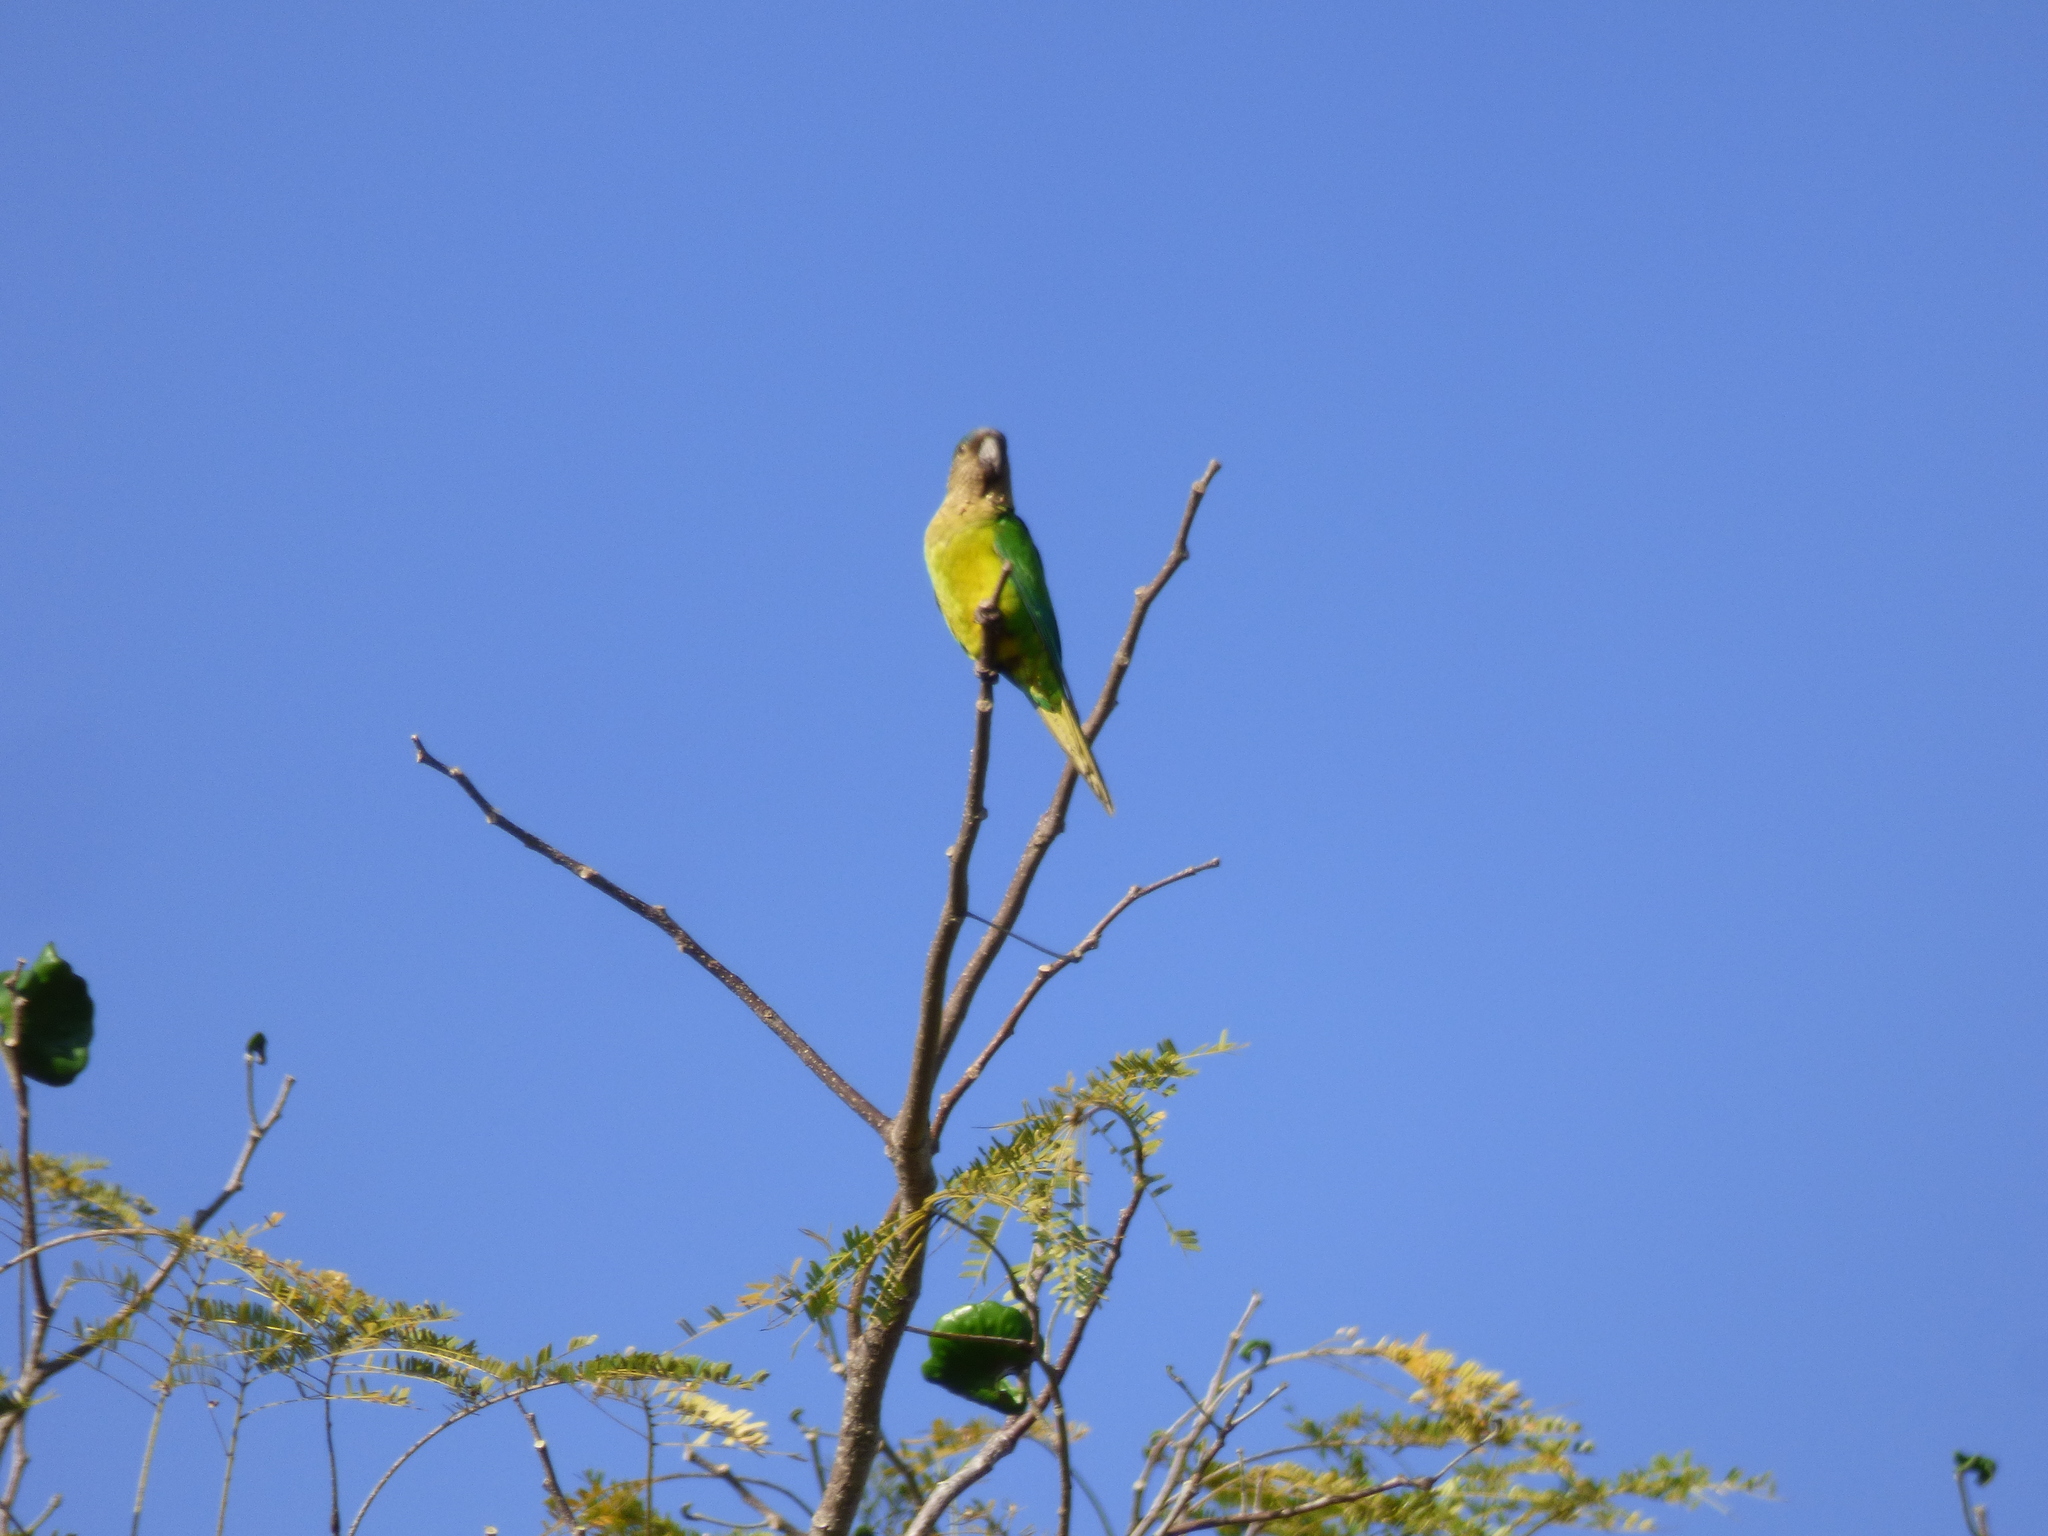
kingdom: Animalia
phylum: Chordata
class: Aves
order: Psittaciformes
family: Psittacidae
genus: Aratinga
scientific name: Aratinga pertinax
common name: Brown-throated parakeet
